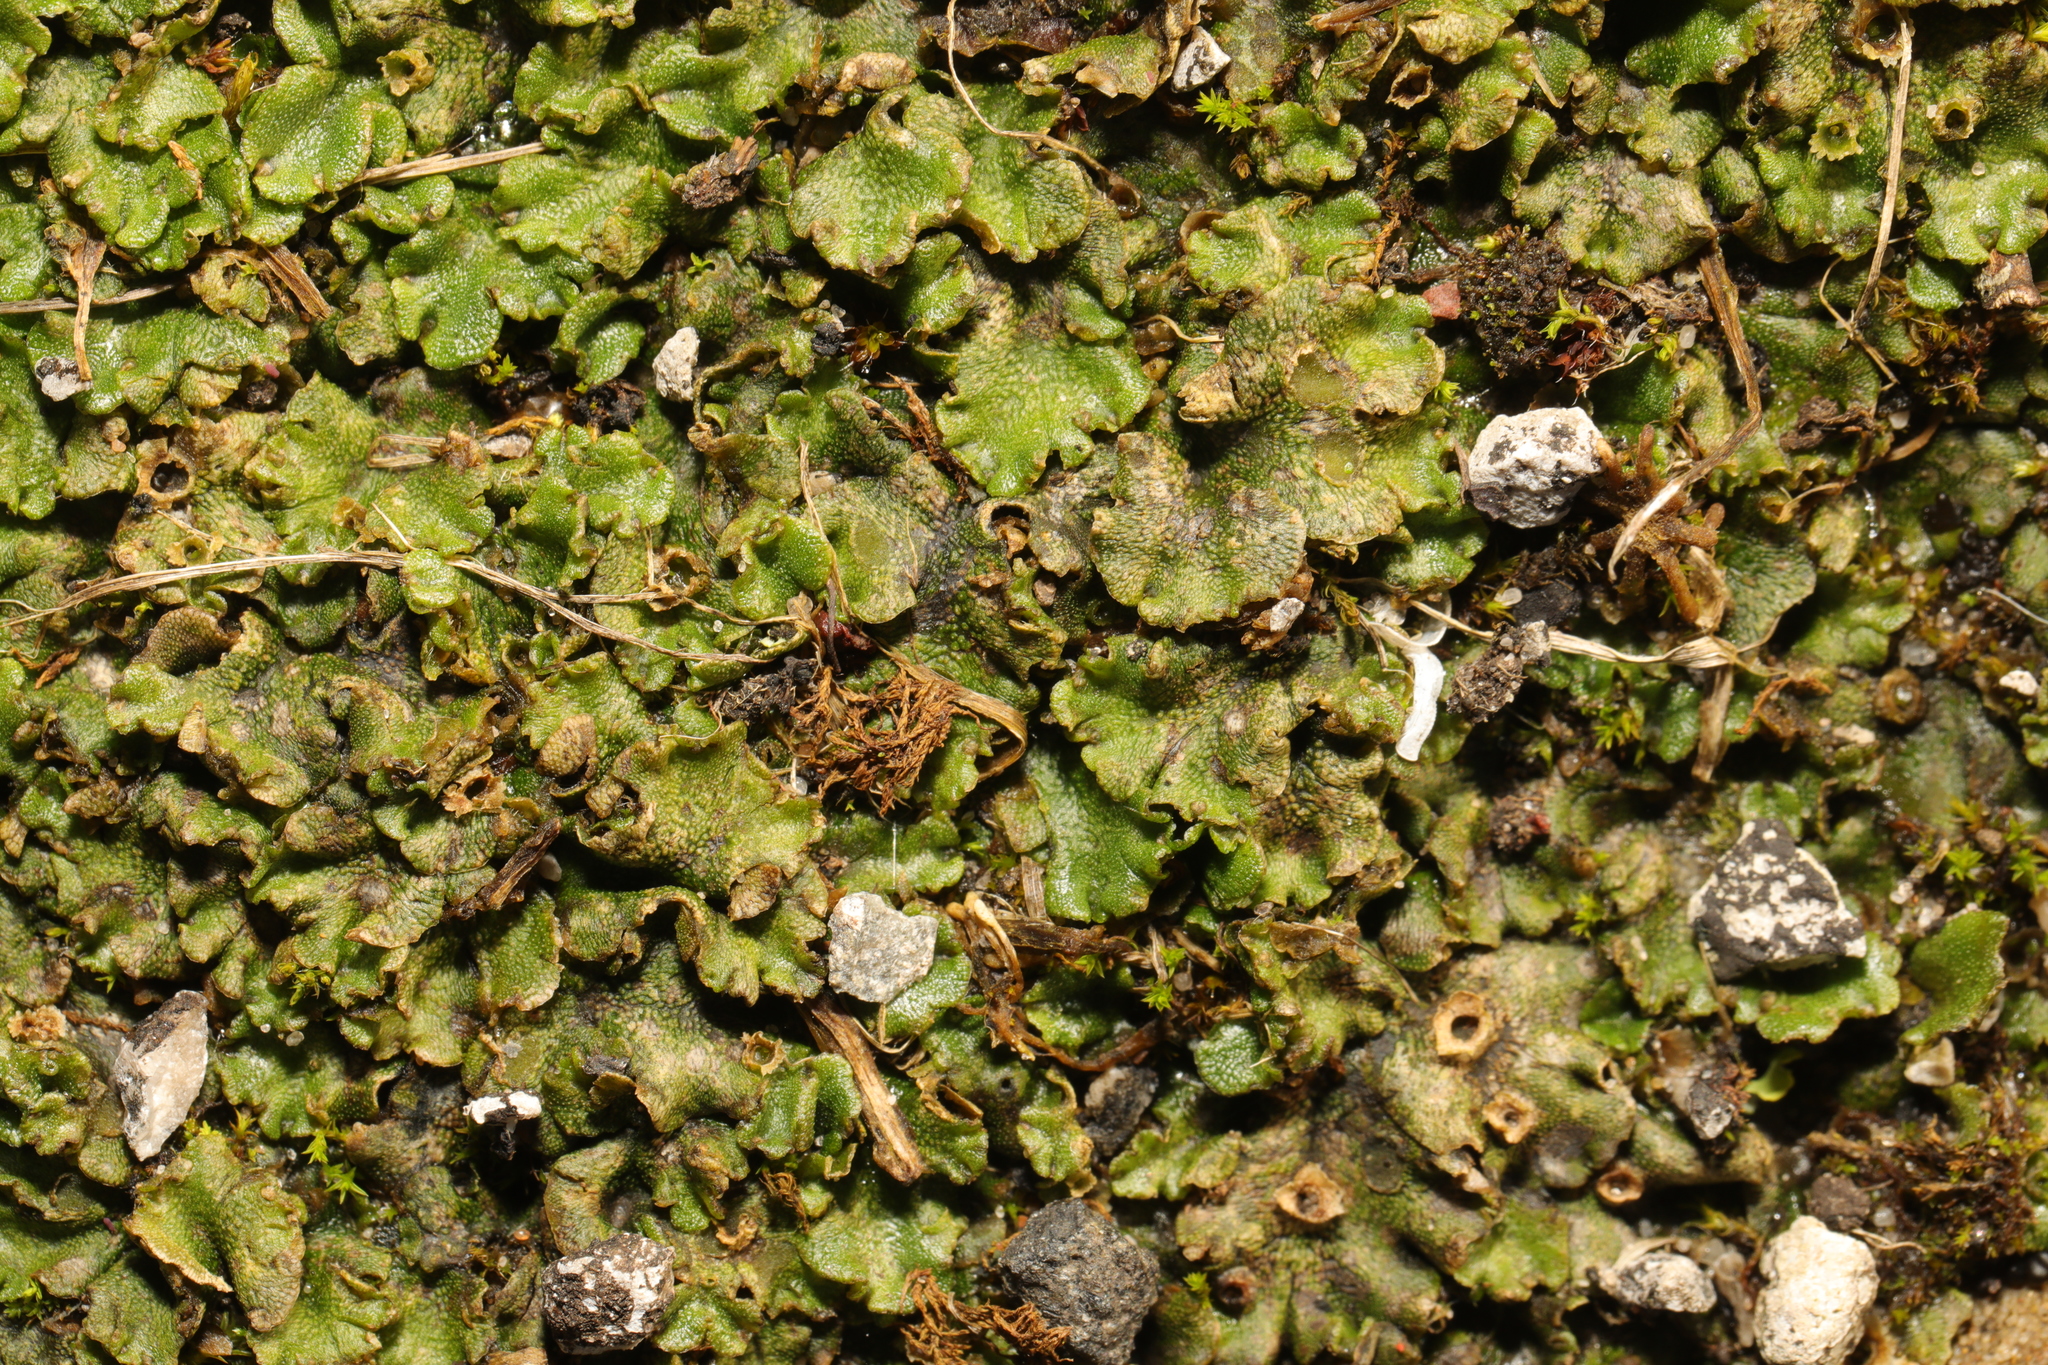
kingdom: Plantae
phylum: Marchantiophyta
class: Marchantiopsida
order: Marchantiales
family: Marchantiaceae
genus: Marchantia
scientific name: Marchantia polymorpha
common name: Common liverwort
